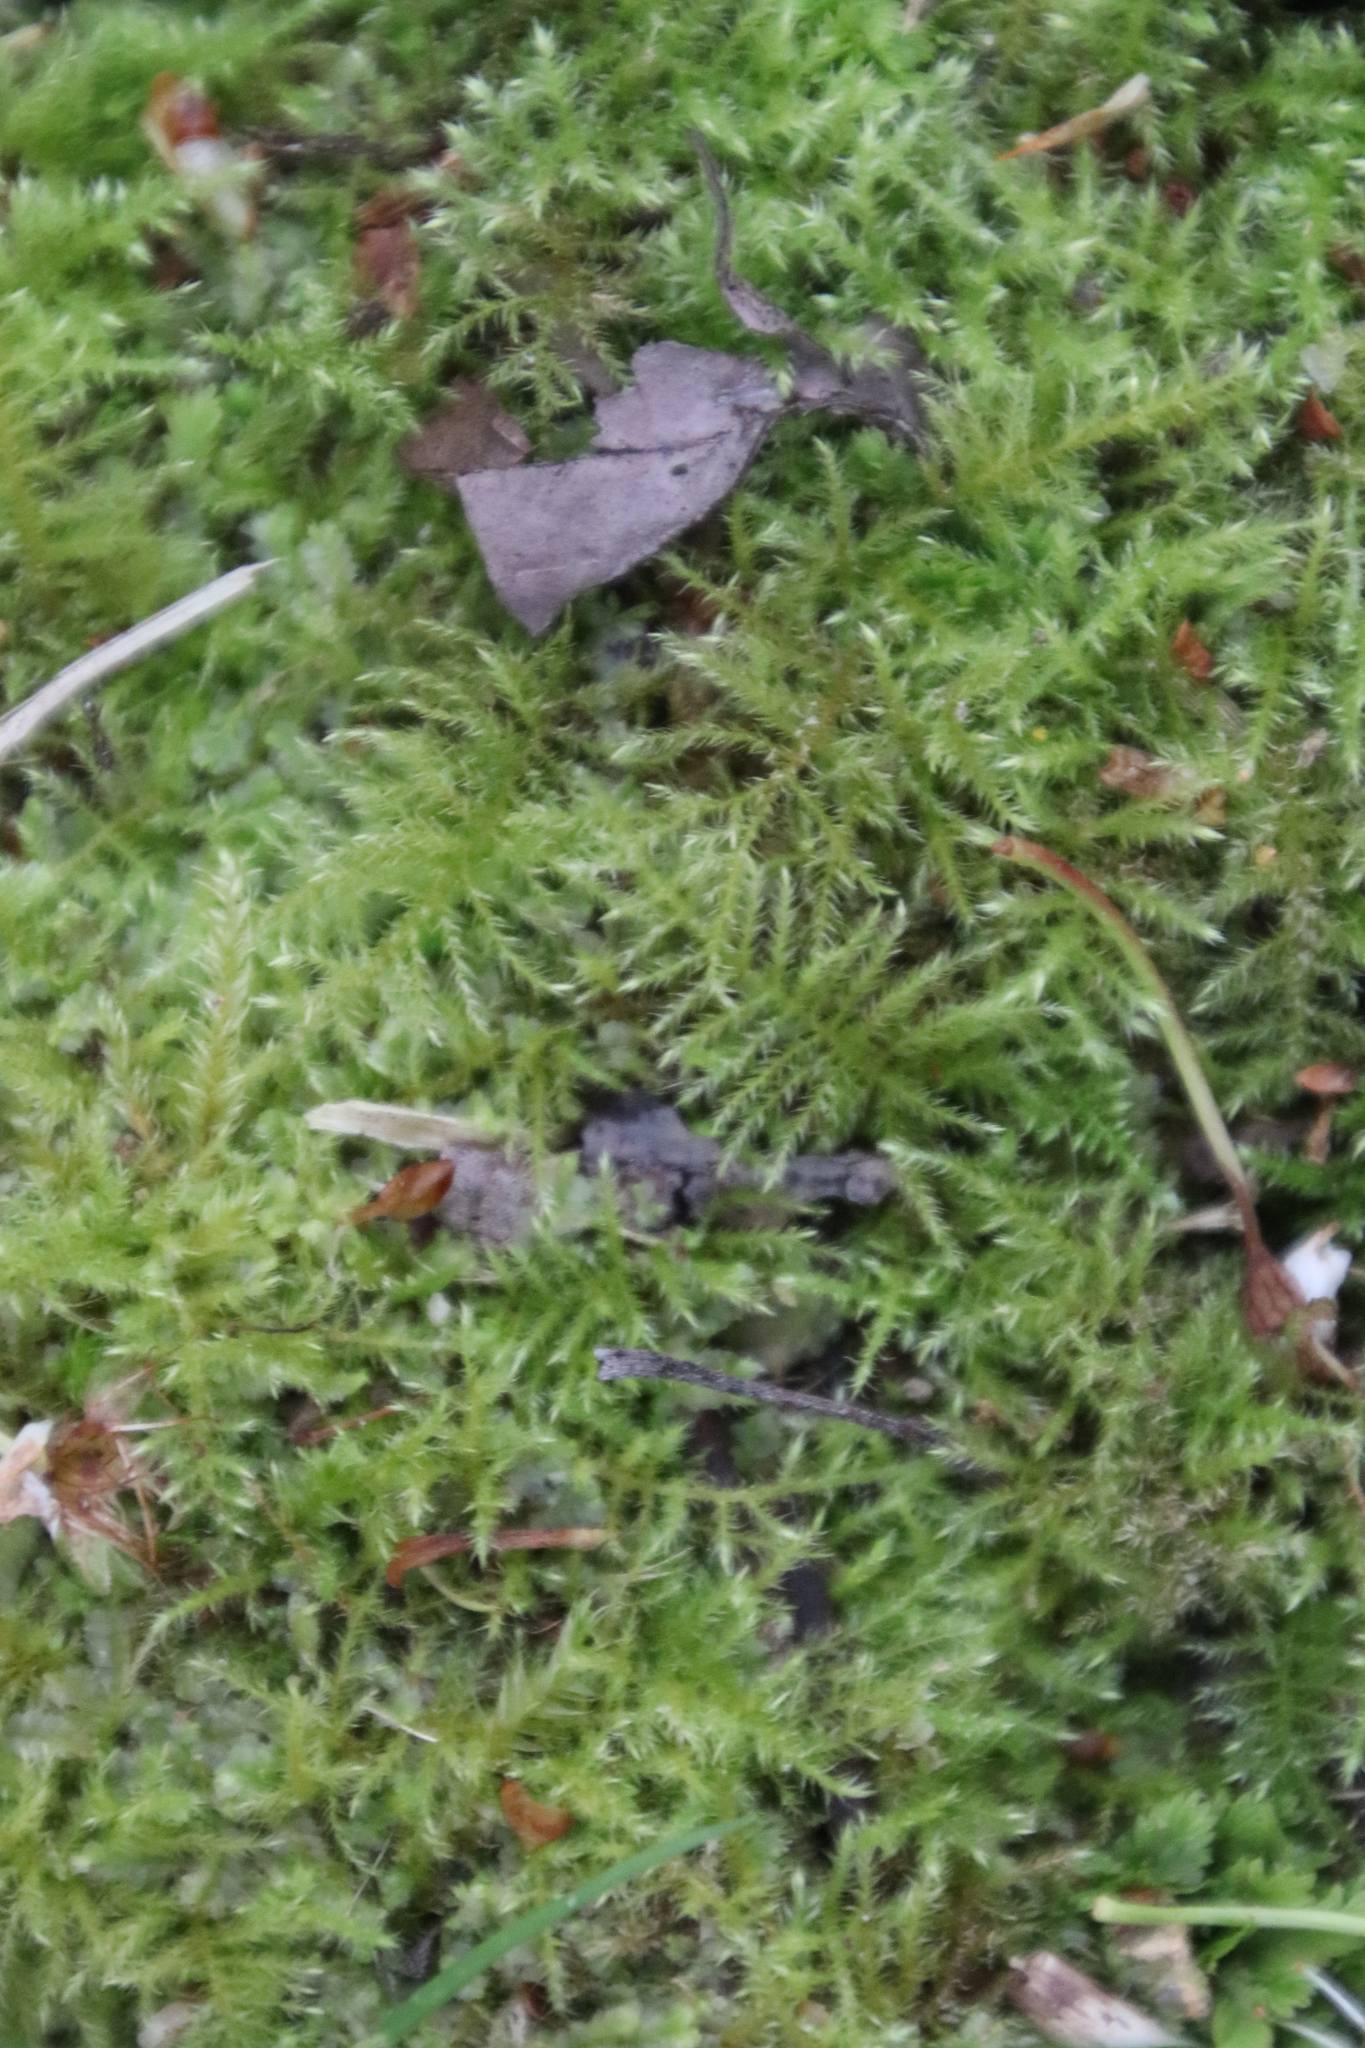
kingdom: Plantae
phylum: Bryophyta
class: Bryopsida
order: Hypnales
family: Brachytheciaceae
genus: Kindbergia
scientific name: Kindbergia praelonga
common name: Slender beaked moss
